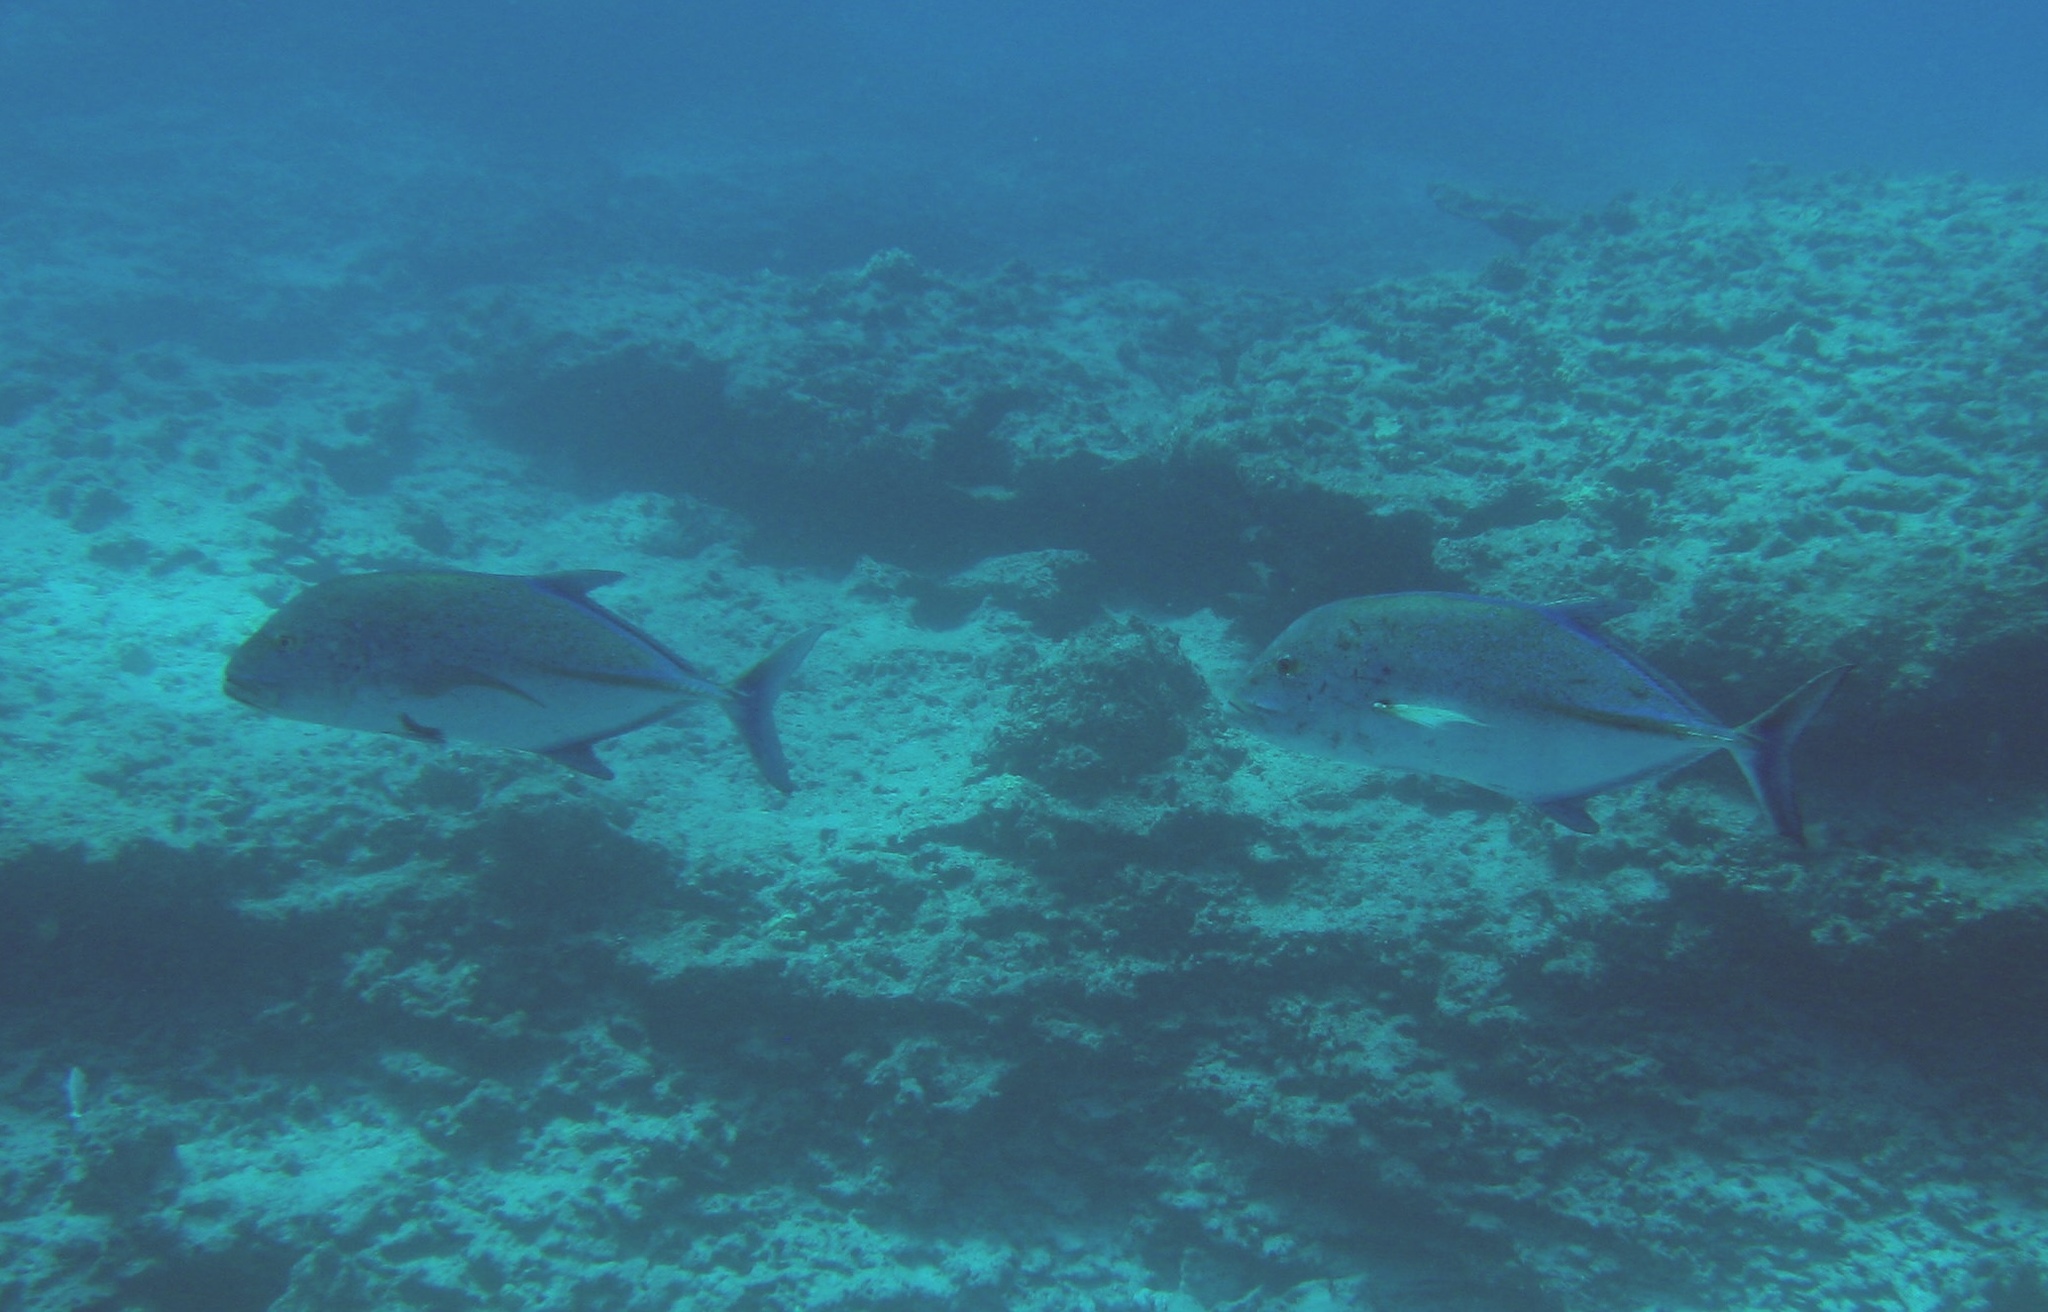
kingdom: Animalia
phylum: Chordata
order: Perciformes
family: Carangidae
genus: Caranx
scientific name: Caranx melampygus
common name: Bluefin trevally
